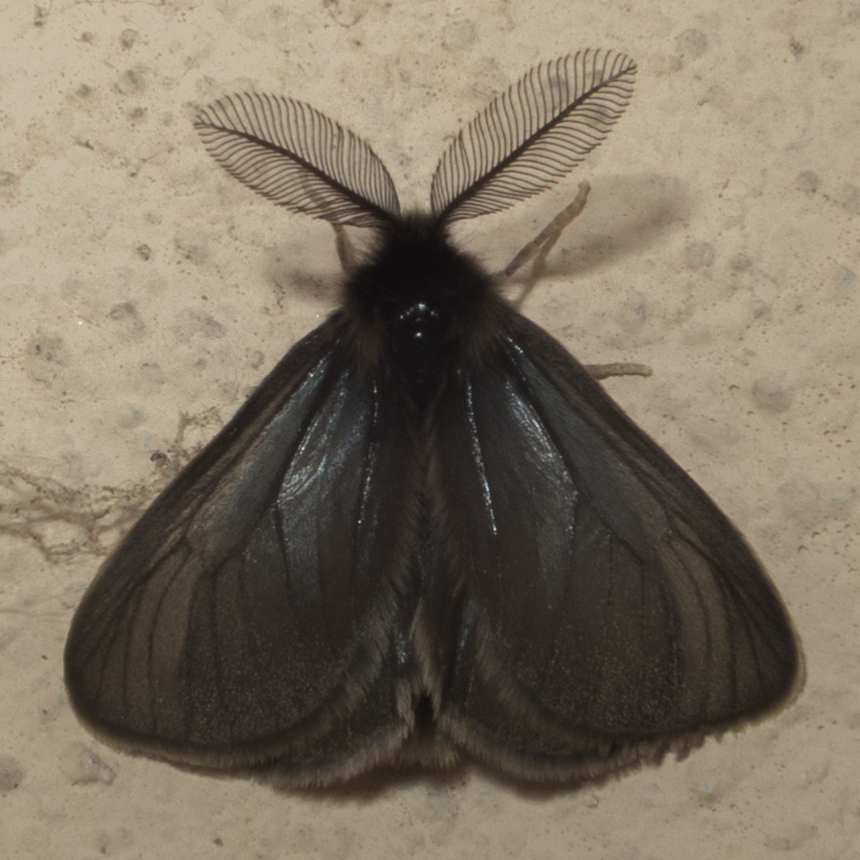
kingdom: Animalia
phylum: Arthropoda
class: Insecta
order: Lepidoptera
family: Erebidae
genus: Penthophera
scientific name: Penthophera morio
